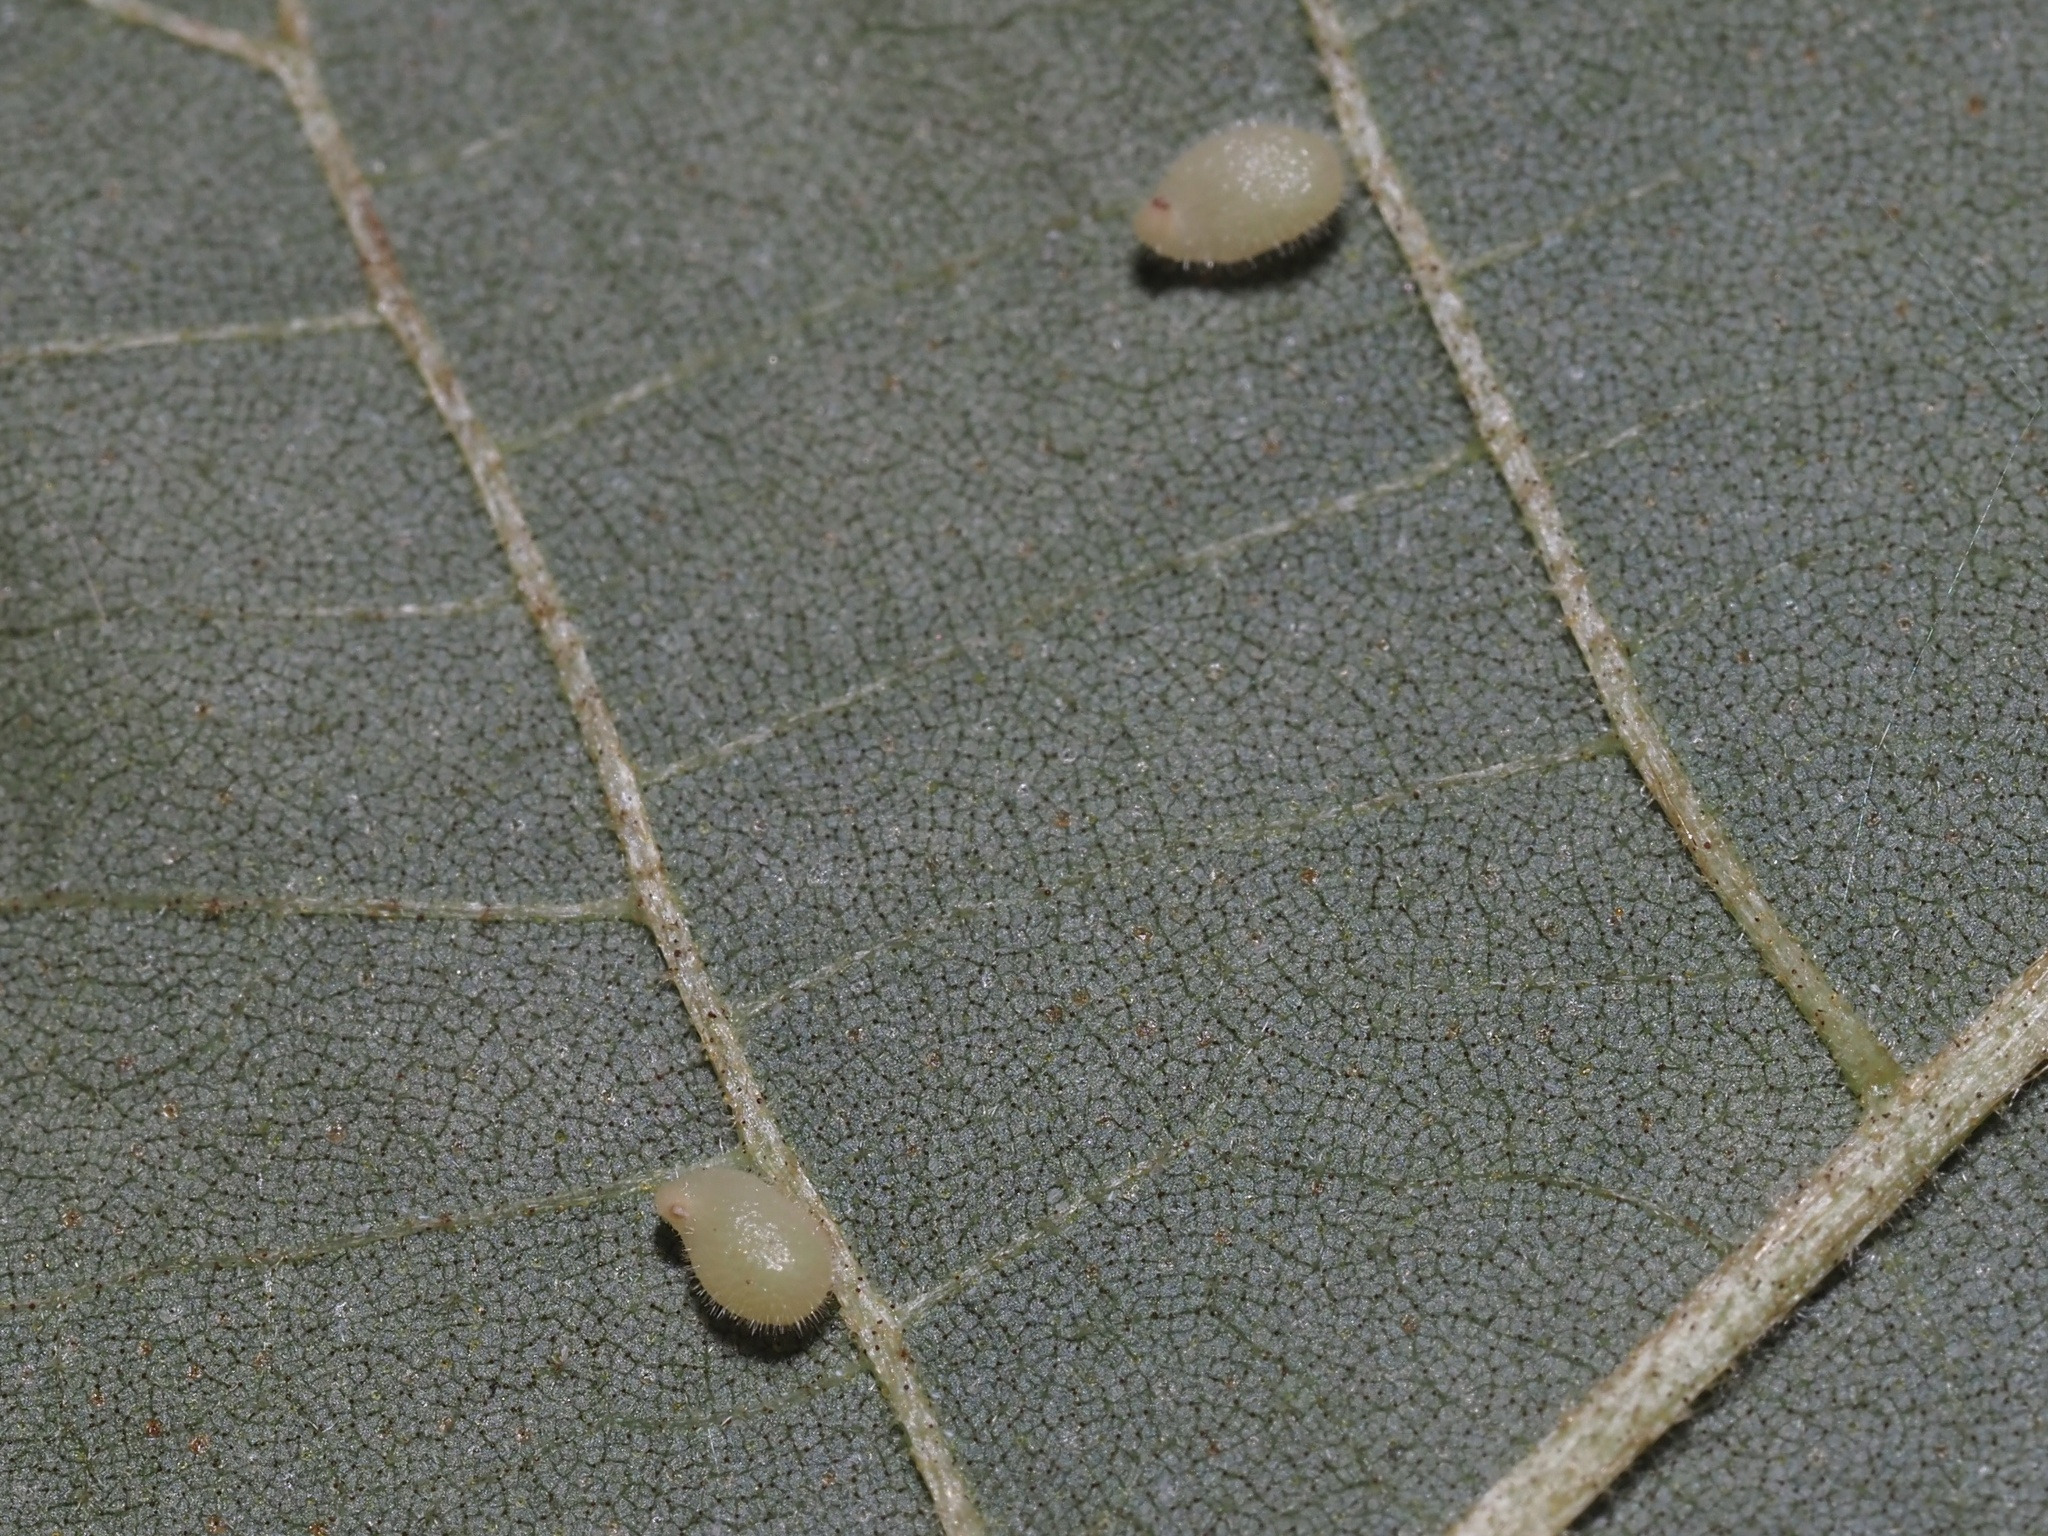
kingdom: Animalia
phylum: Arthropoda
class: Insecta
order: Diptera
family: Cecidomyiidae
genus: Caryomyia
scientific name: Caryomyia eumaris
